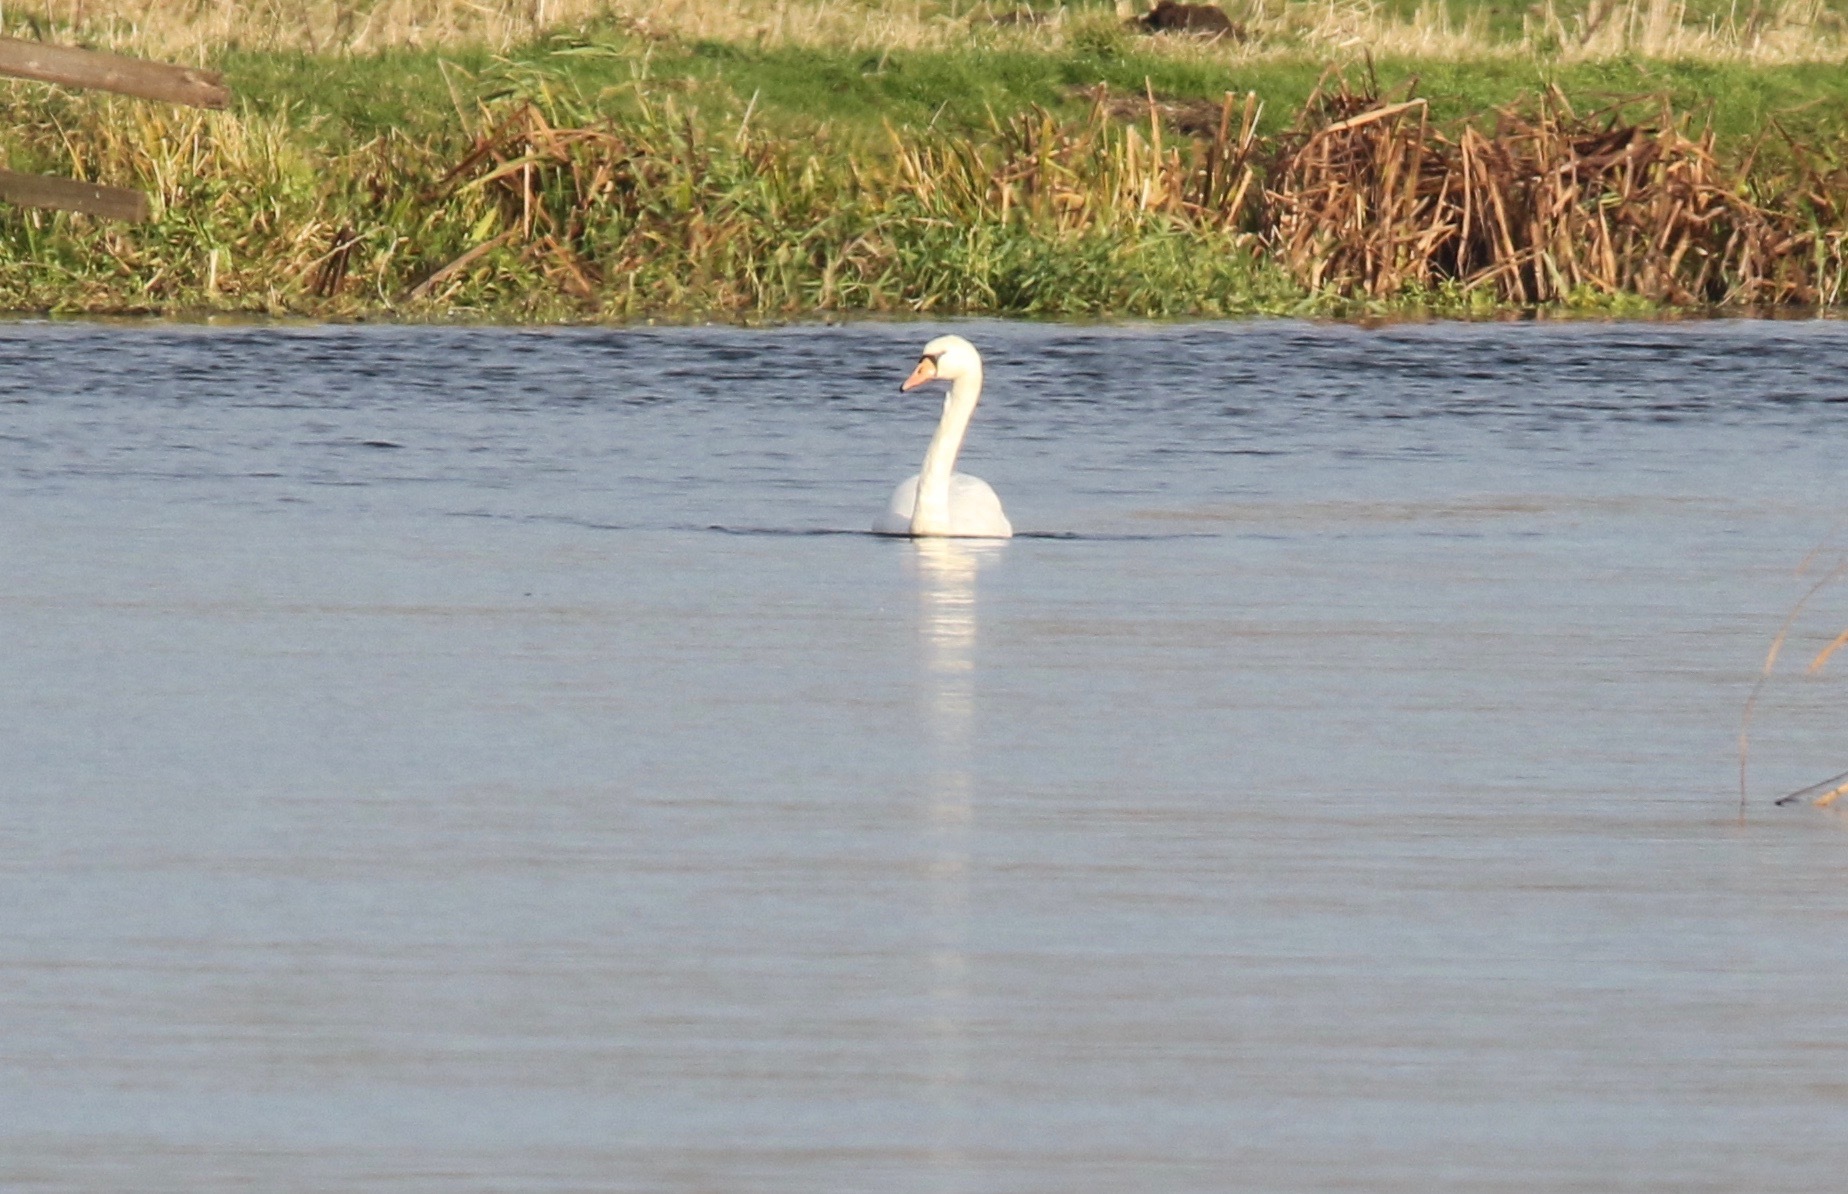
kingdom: Animalia
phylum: Chordata
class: Aves
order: Anseriformes
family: Anatidae
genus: Cygnus
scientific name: Cygnus olor
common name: Mute swan
